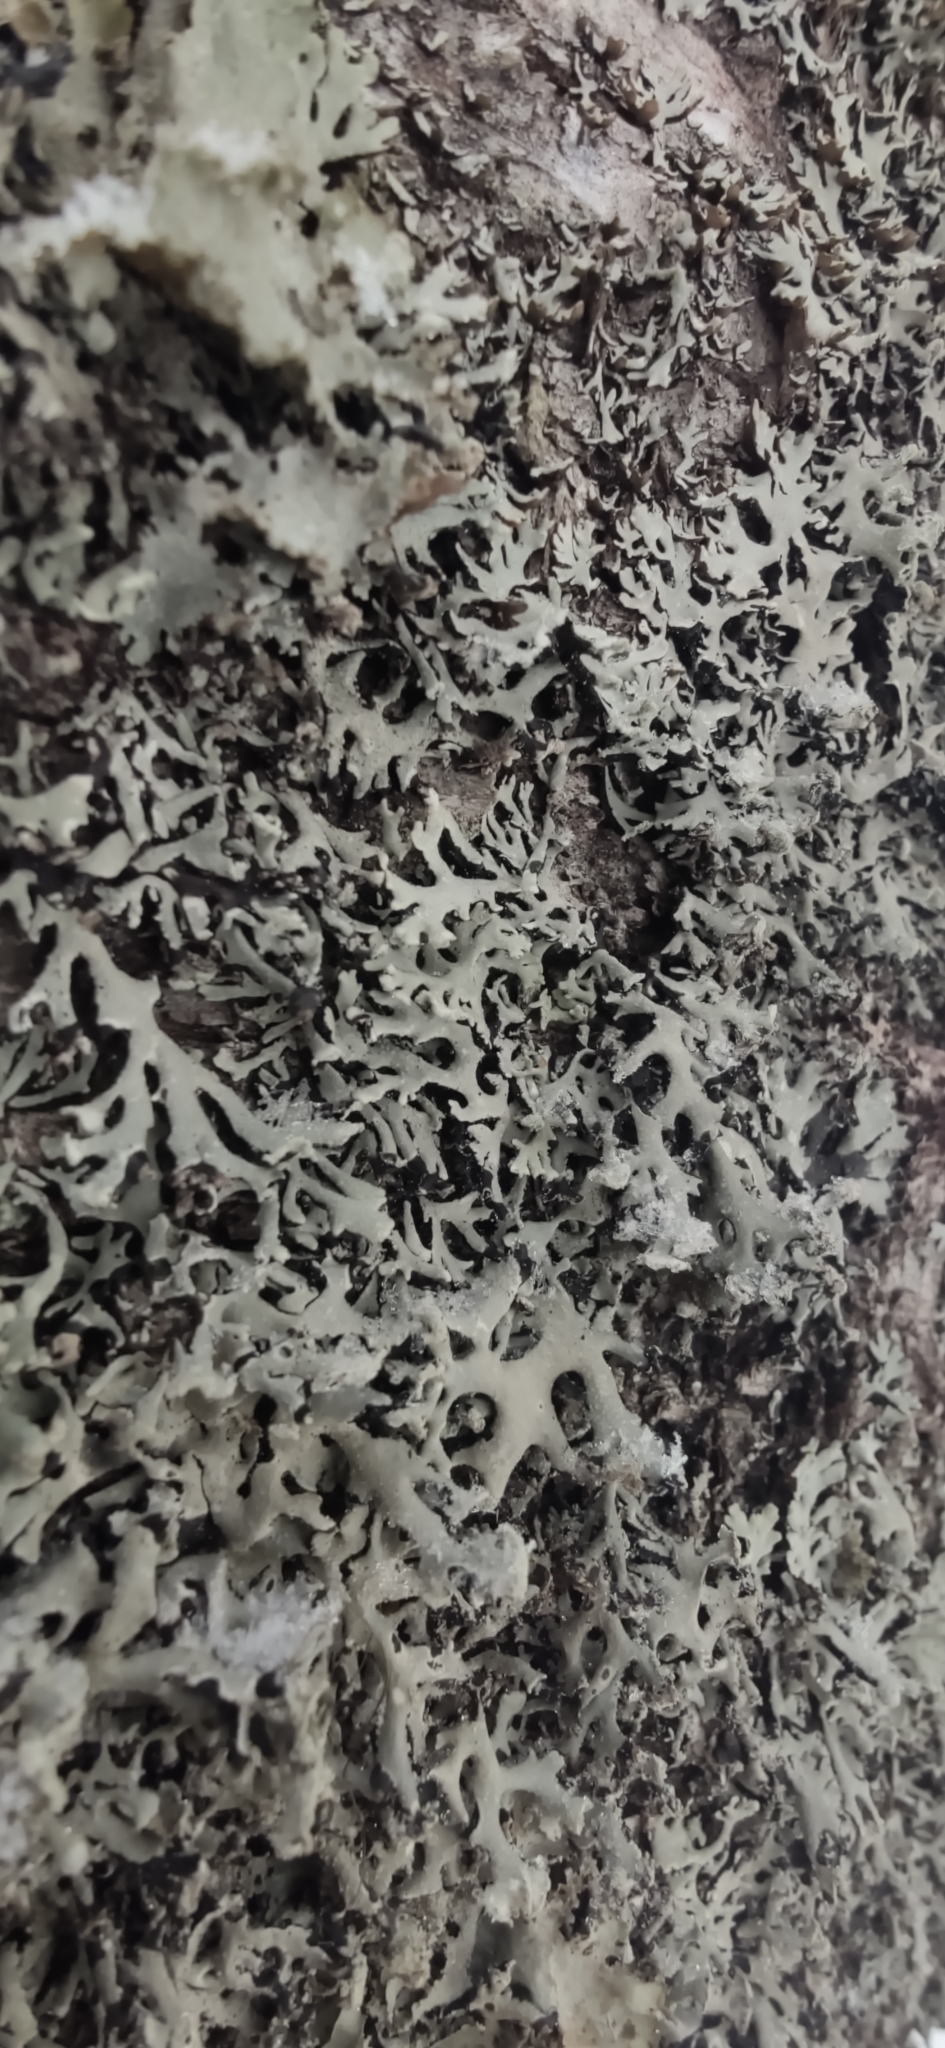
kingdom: Fungi
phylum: Ascomycota
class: Lecanoromycetes
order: Lecanorales
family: Parmeliaceae
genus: Hypogymnia
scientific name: Hypogymnia physodes
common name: Dark crottle
